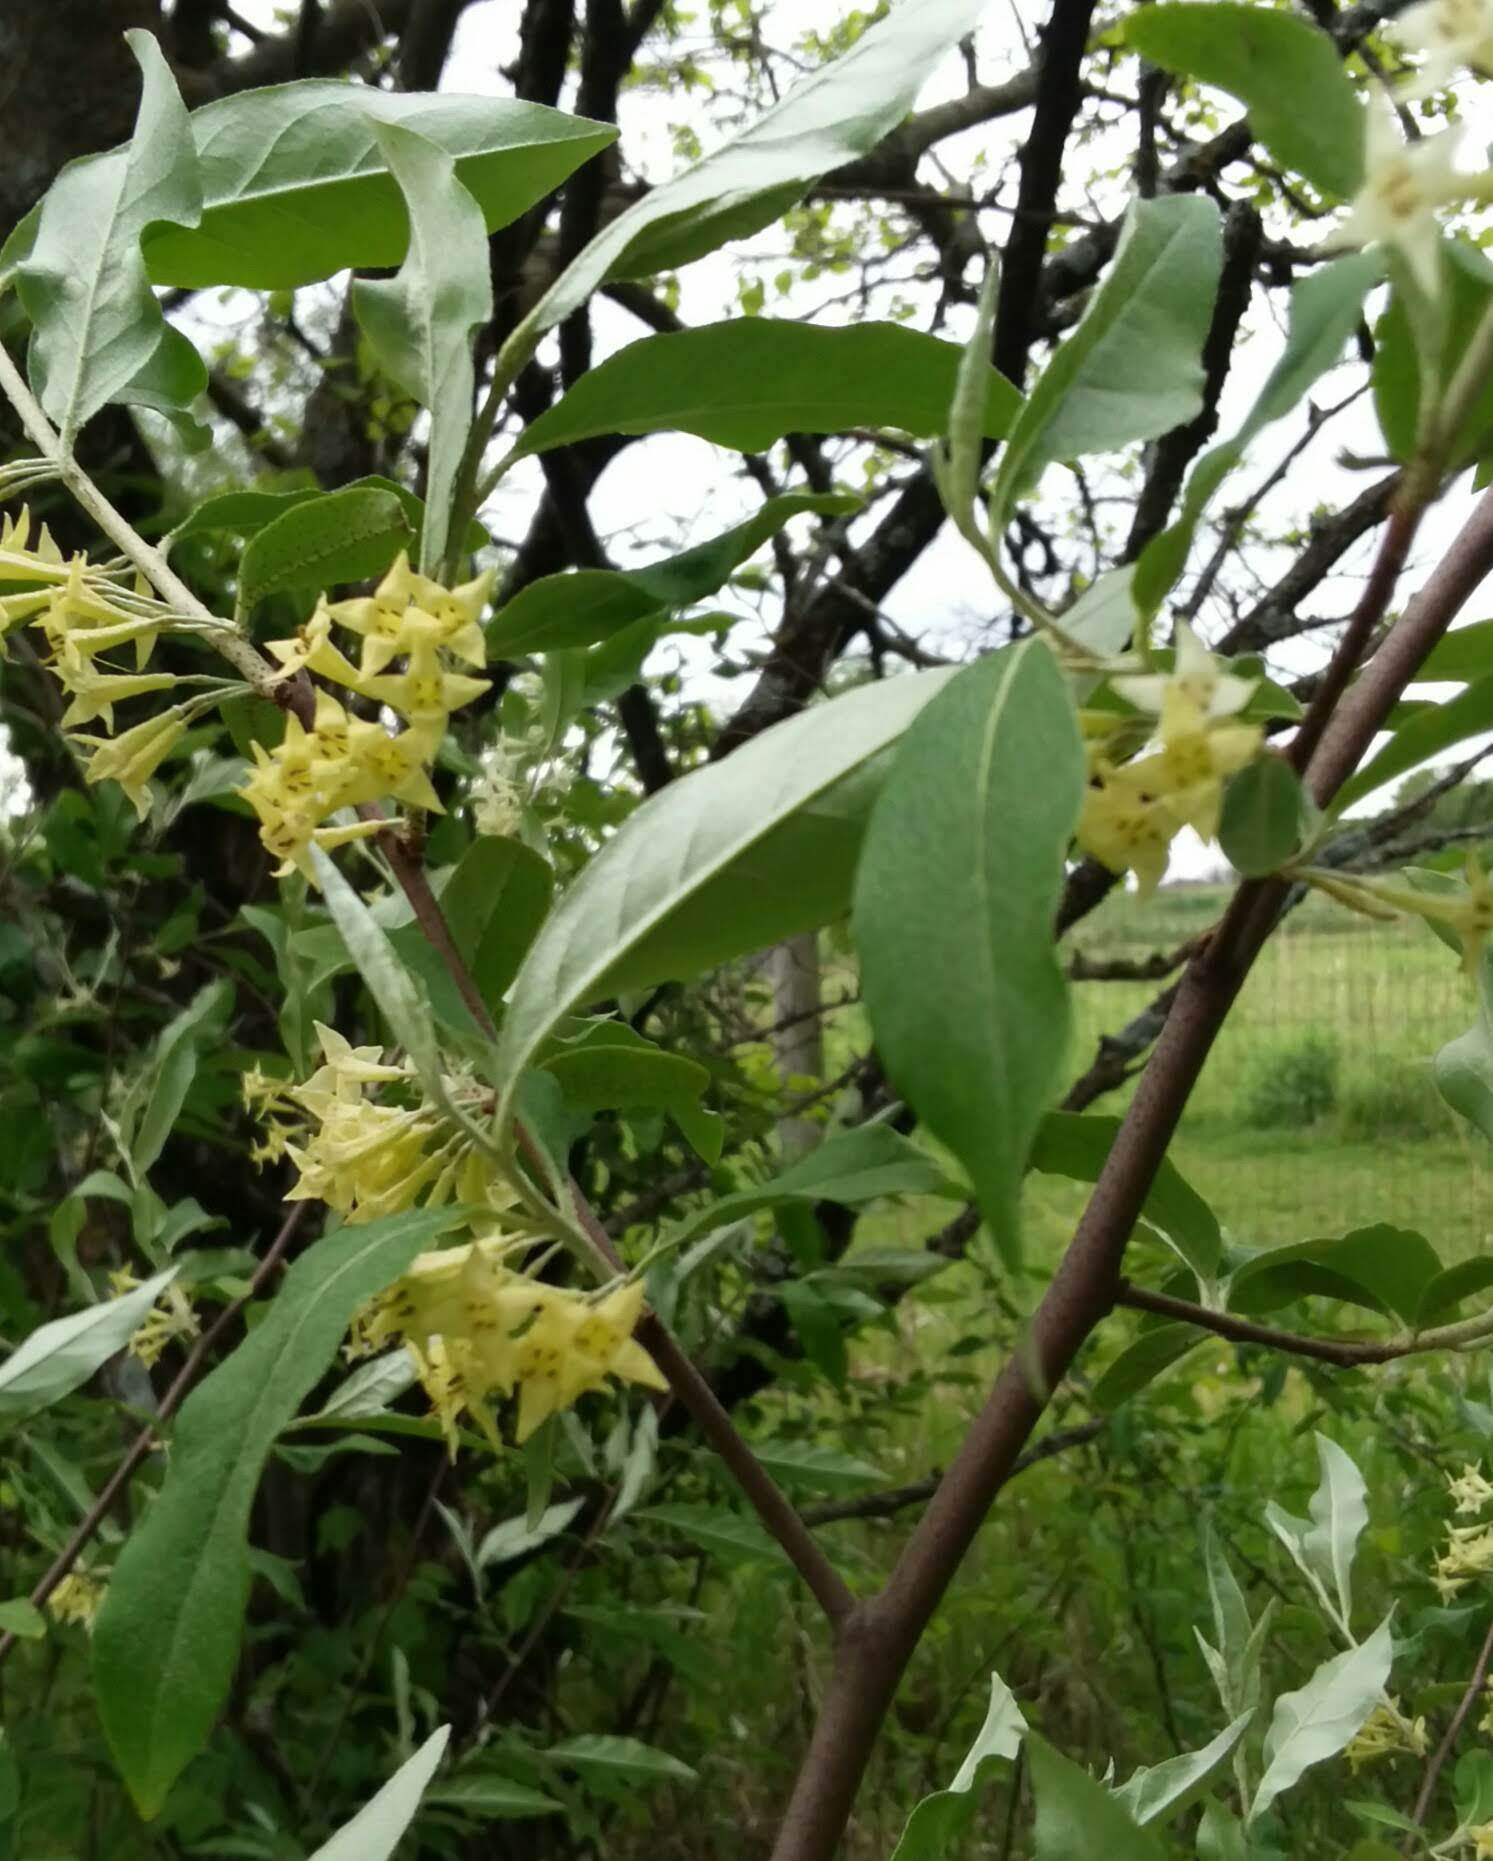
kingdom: Plantae
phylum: Tracheophyta
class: Magnoliopsida
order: Rosales
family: Elaeagnaceae
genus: Elaeagnus
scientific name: Elaeagnus umbellata
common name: Autumn olive
